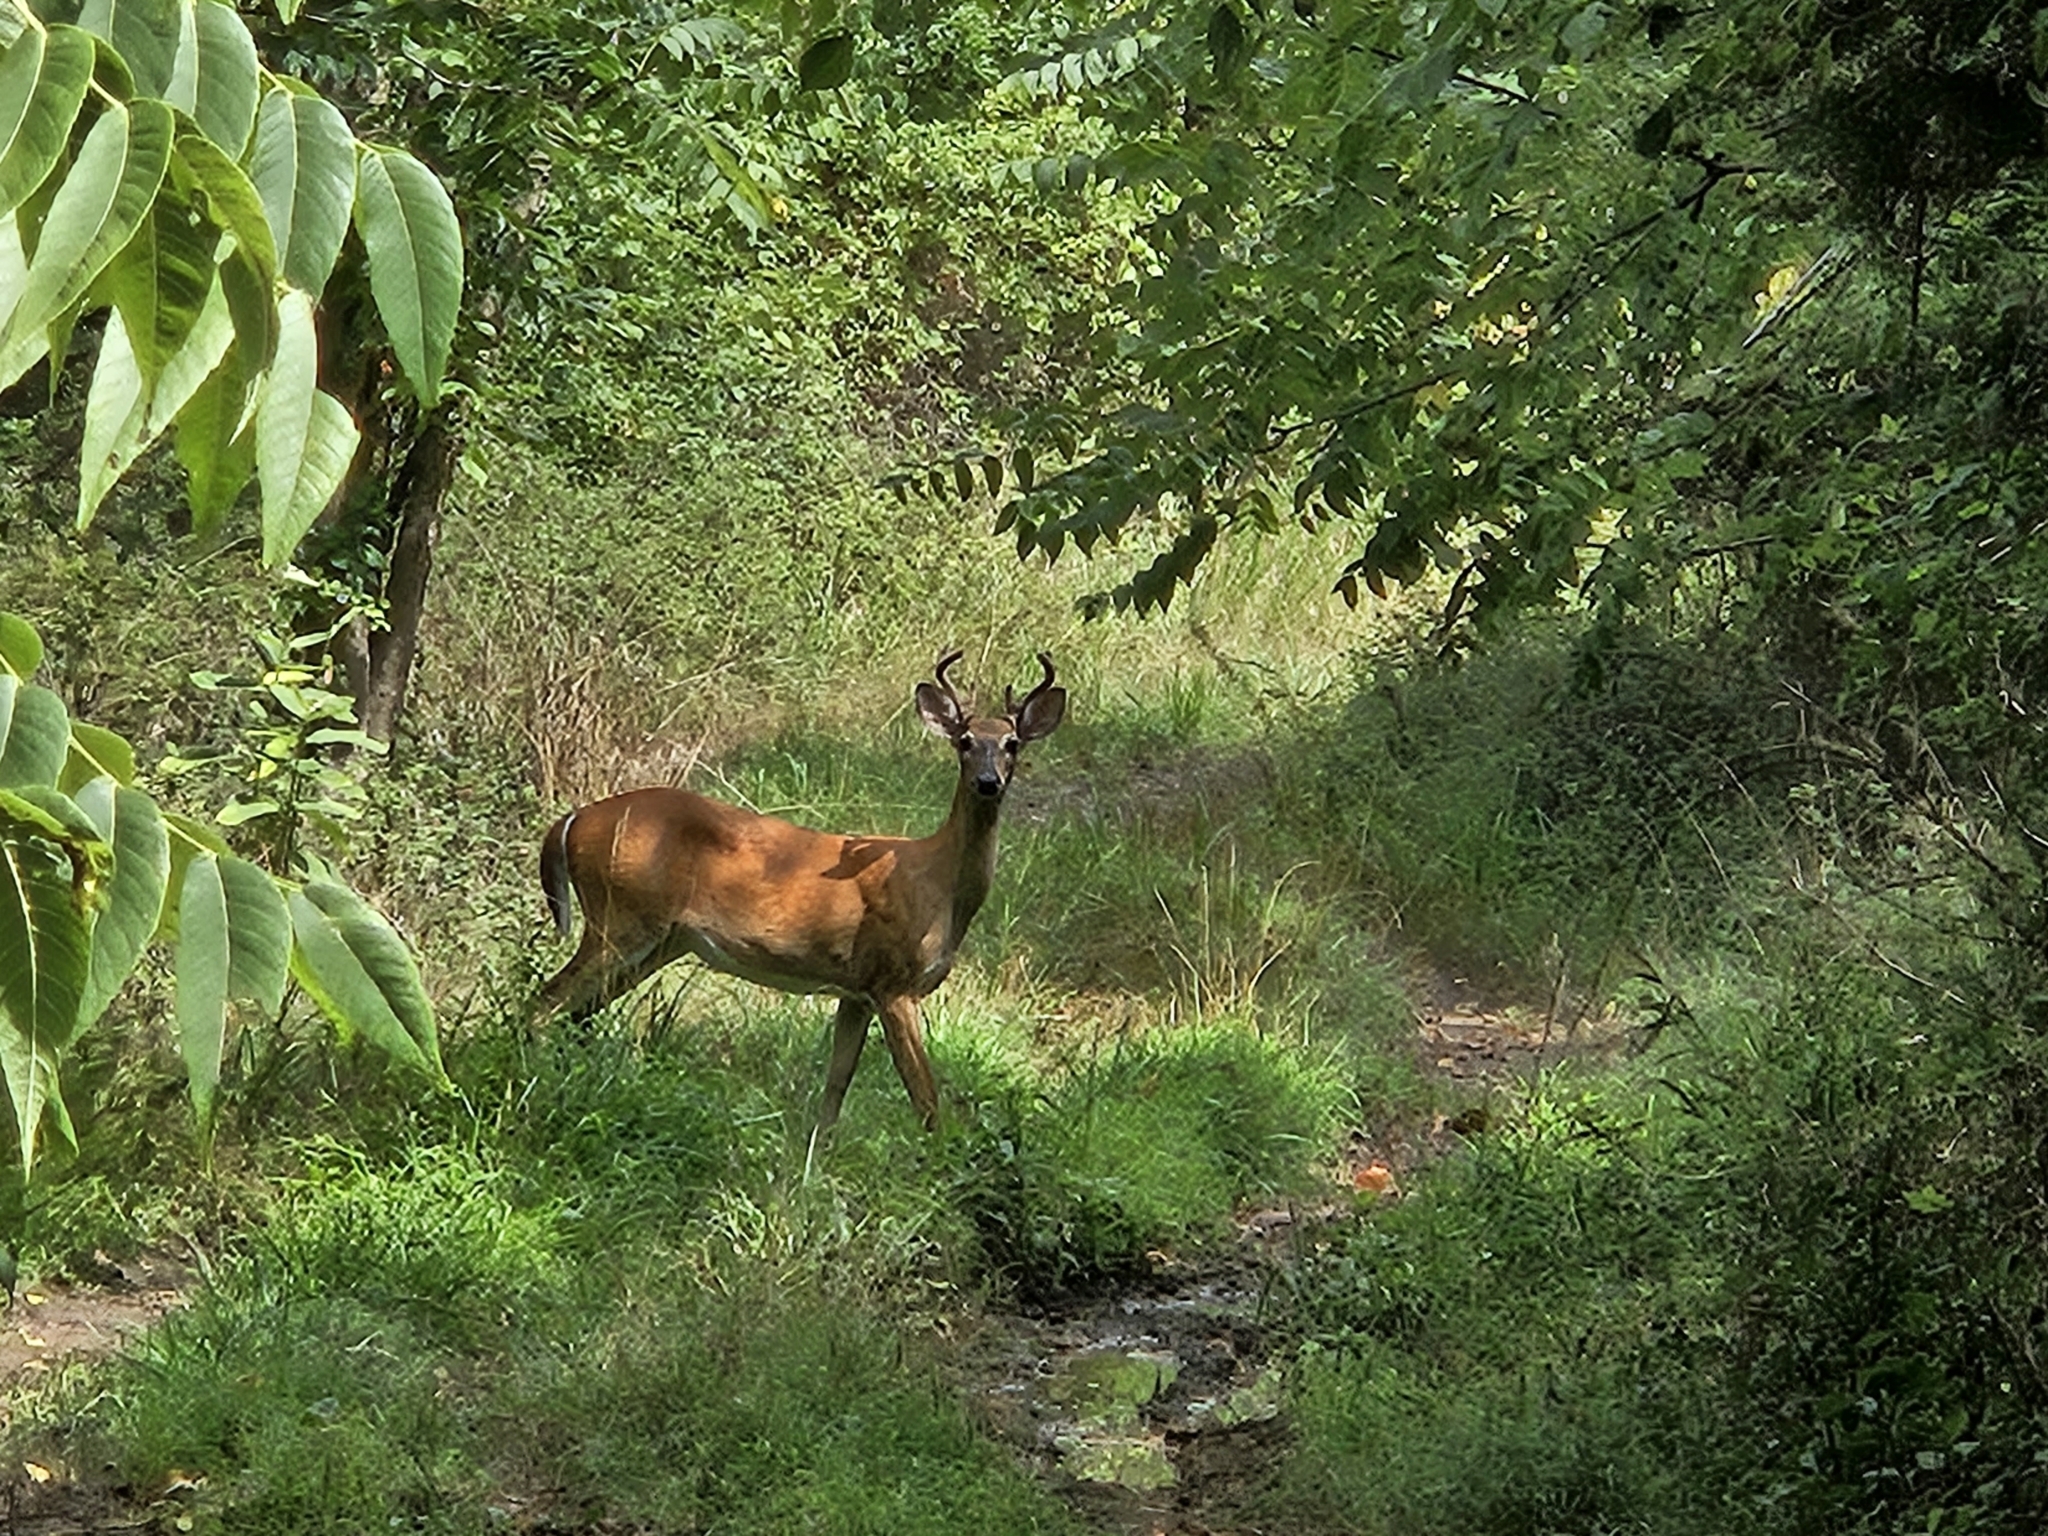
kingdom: Animalia
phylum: Chordata
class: Mammalia
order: Artiodactyla
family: Cervidae
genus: Odocoileus
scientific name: Odocoileus virginianus
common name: White-tailed deer
